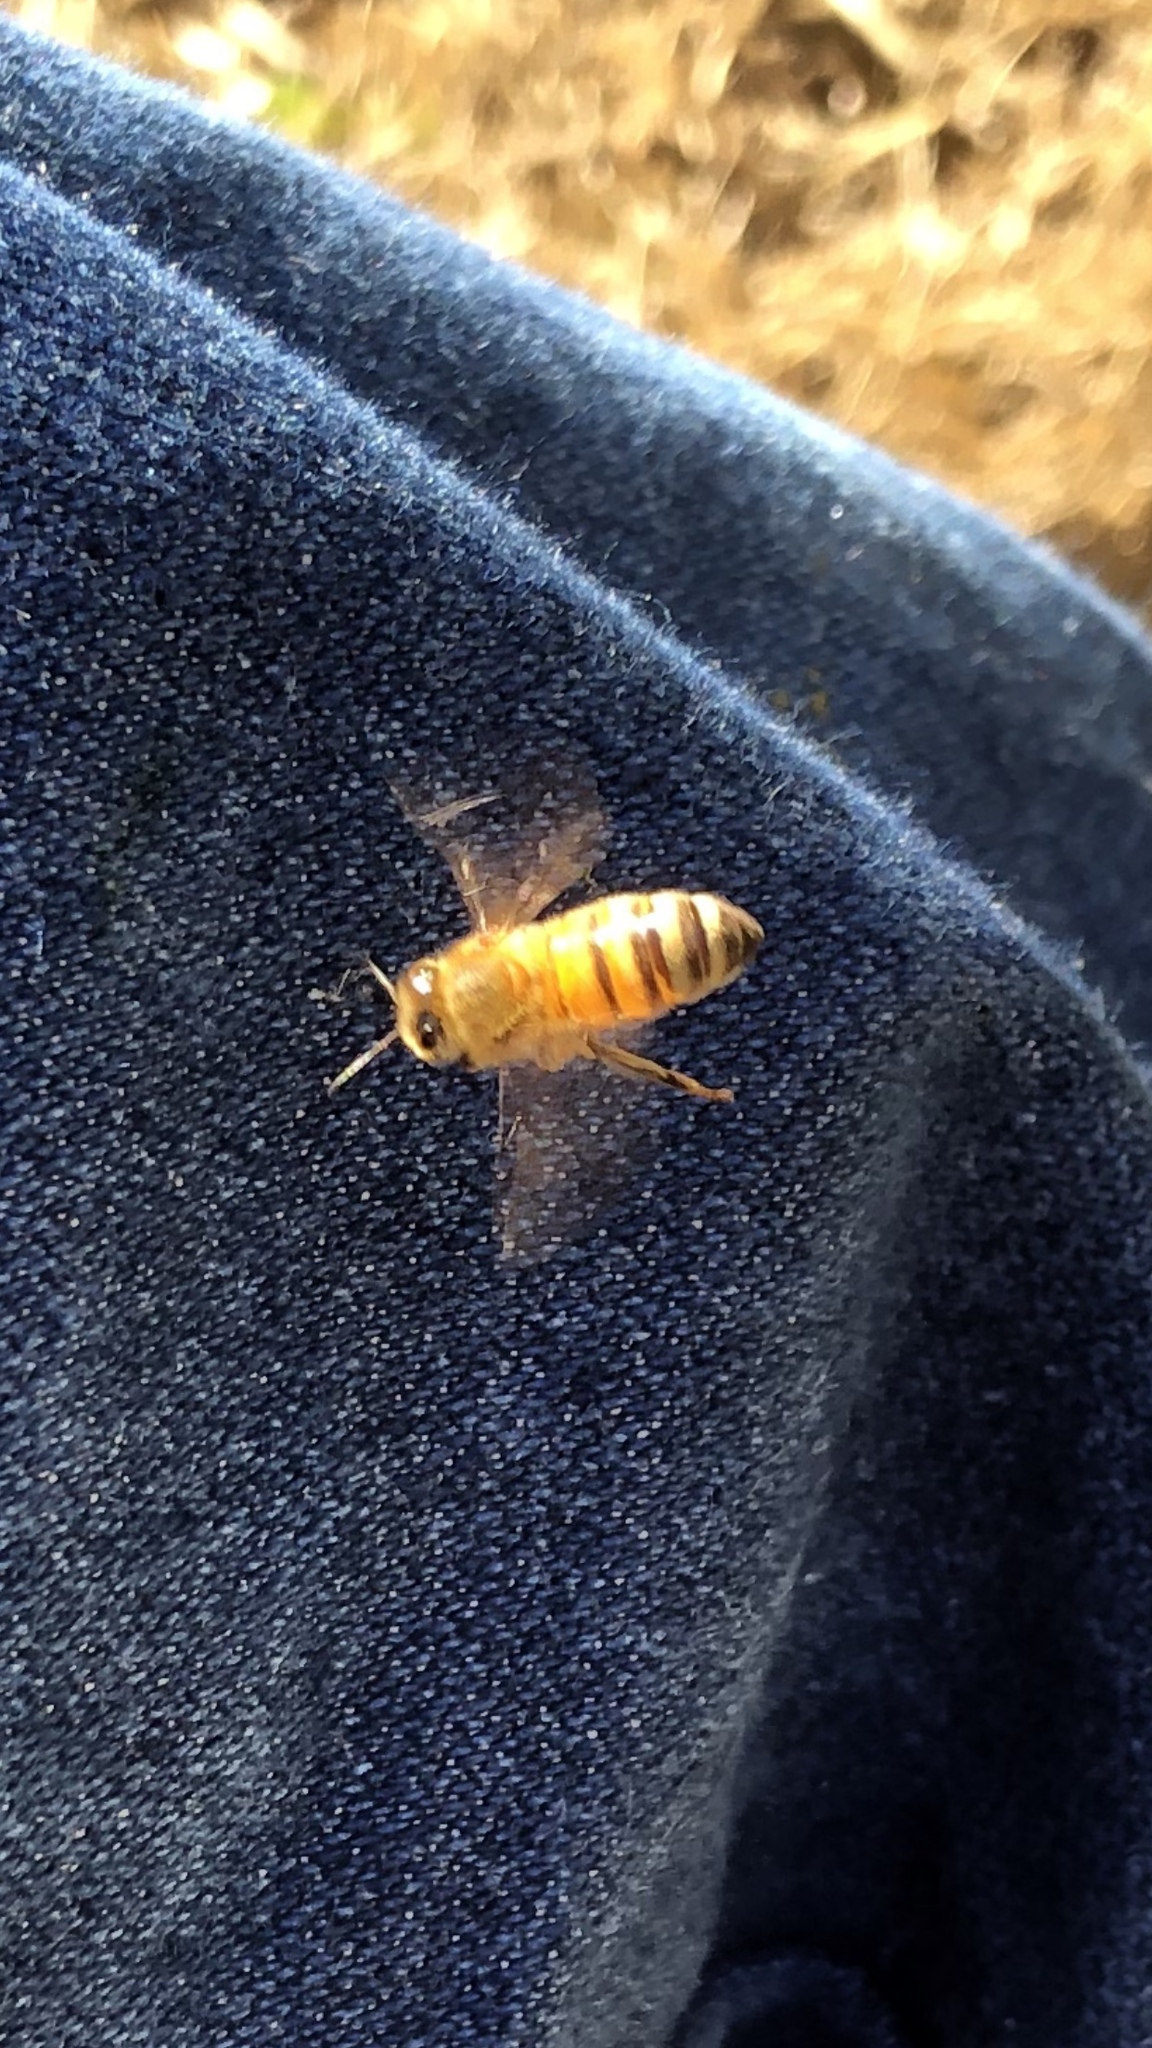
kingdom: Animalia
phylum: Arthropoda
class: Insecta
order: Hymenoptera
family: Apidae
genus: Apis
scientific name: Apis mellifera
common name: Honey bee
